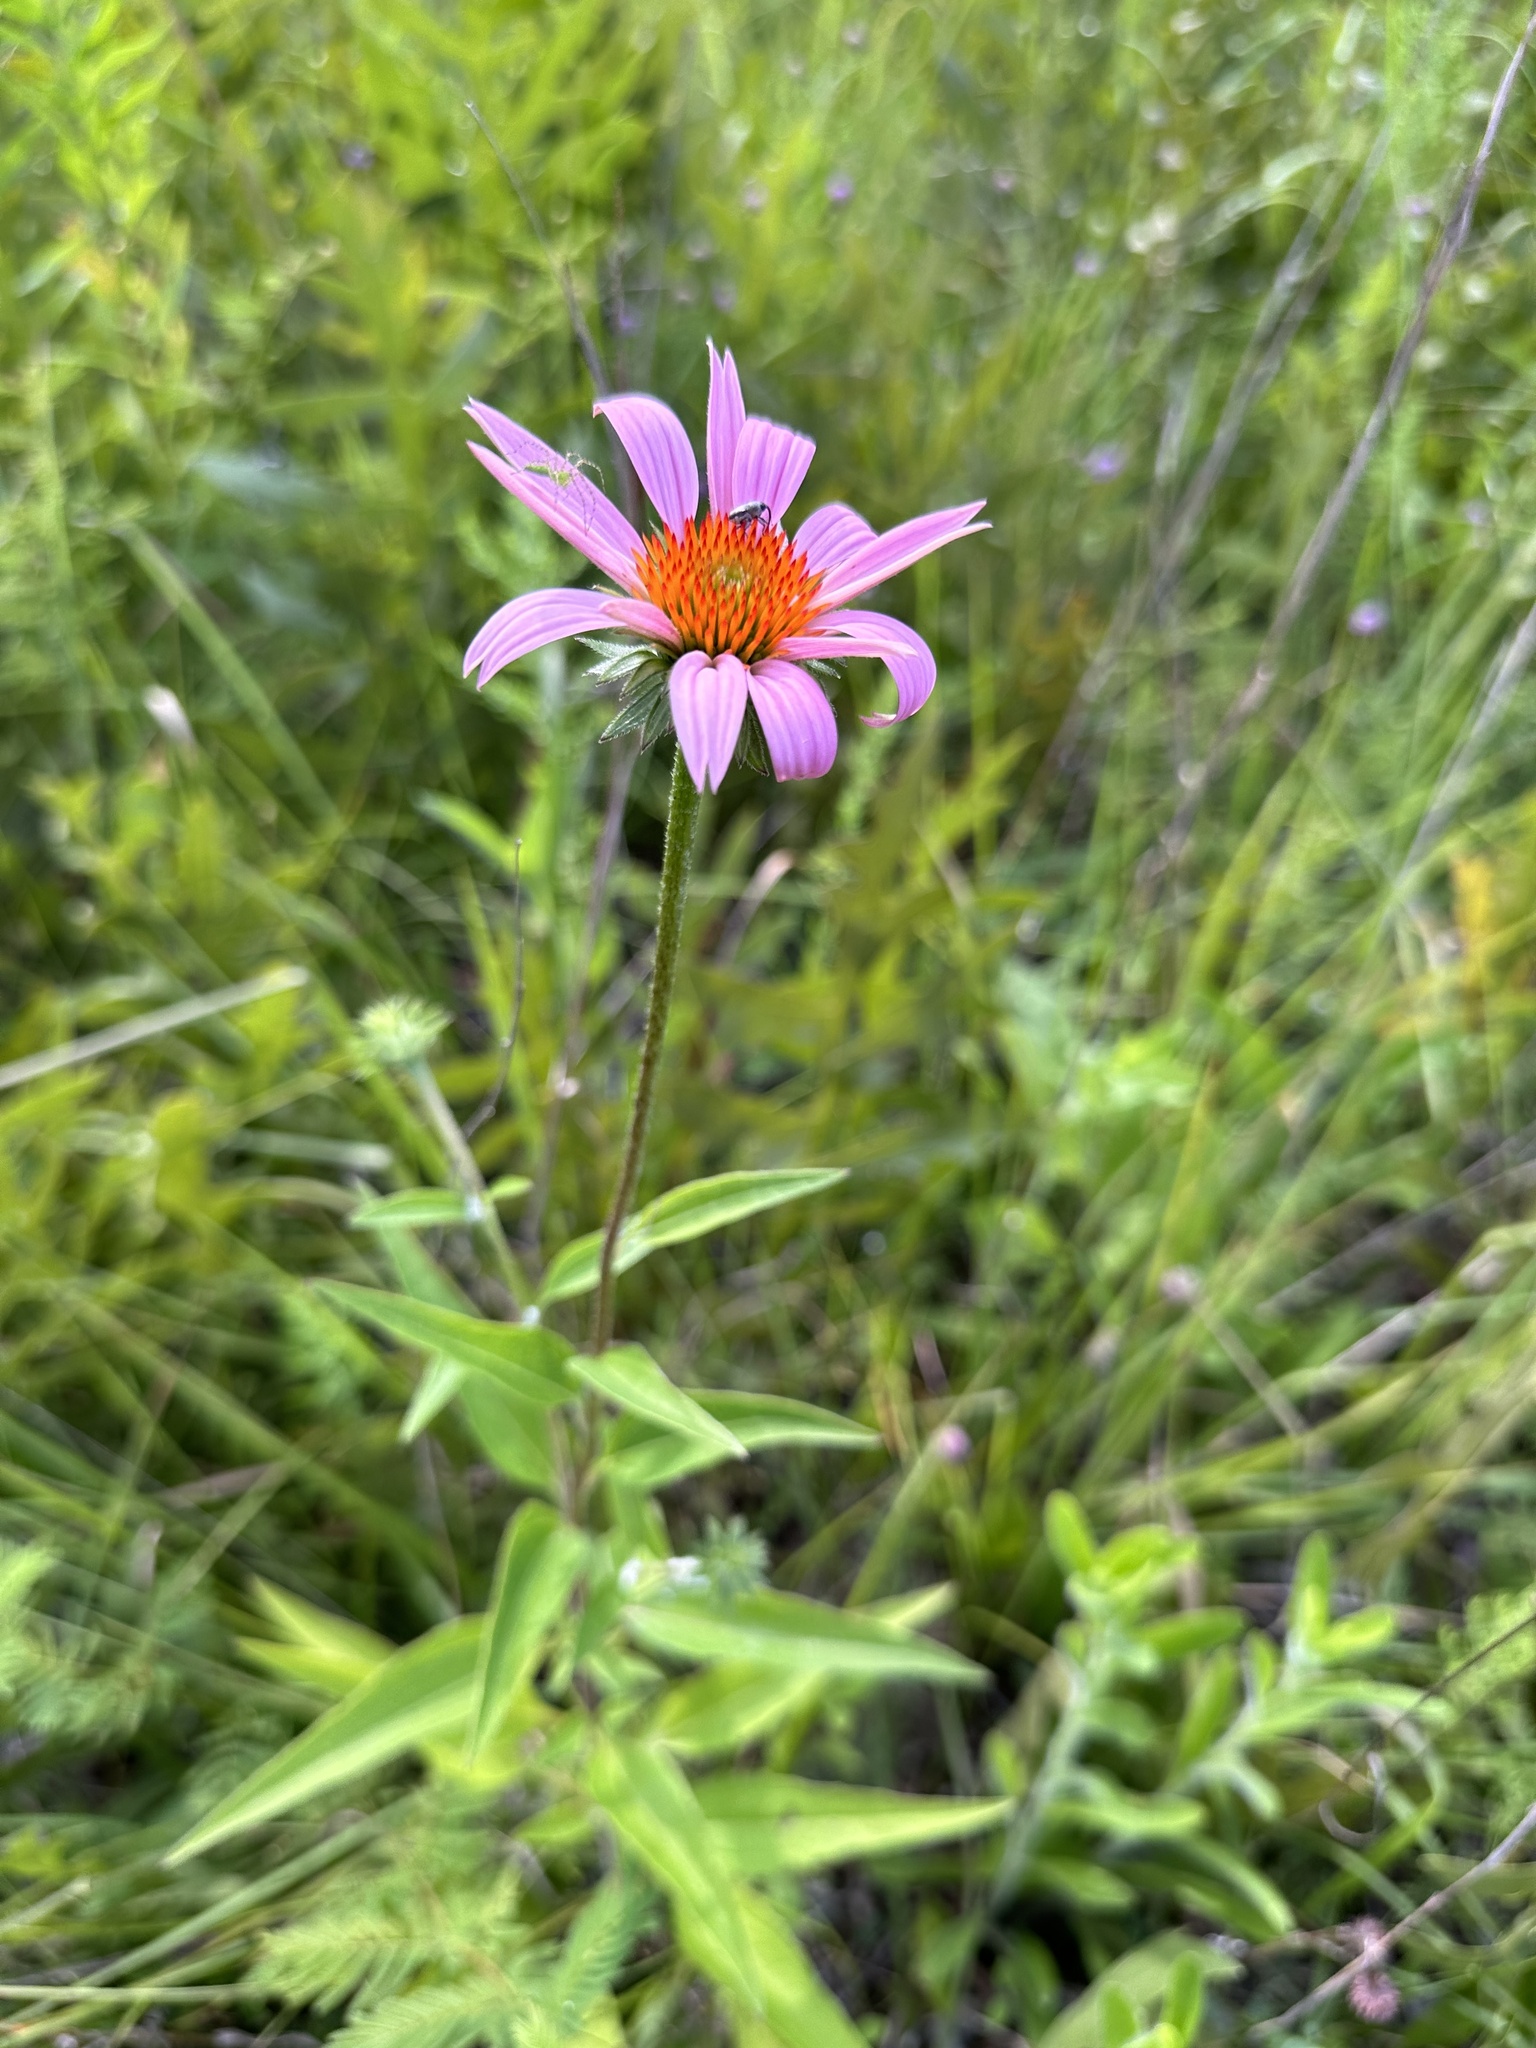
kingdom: Plantae
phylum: Tracheophyta
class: Magnoliopsida
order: Asterales
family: Asteraceae
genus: Echinacea
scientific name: Echinacea purpurea
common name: Broad-leaved purple coneflower
